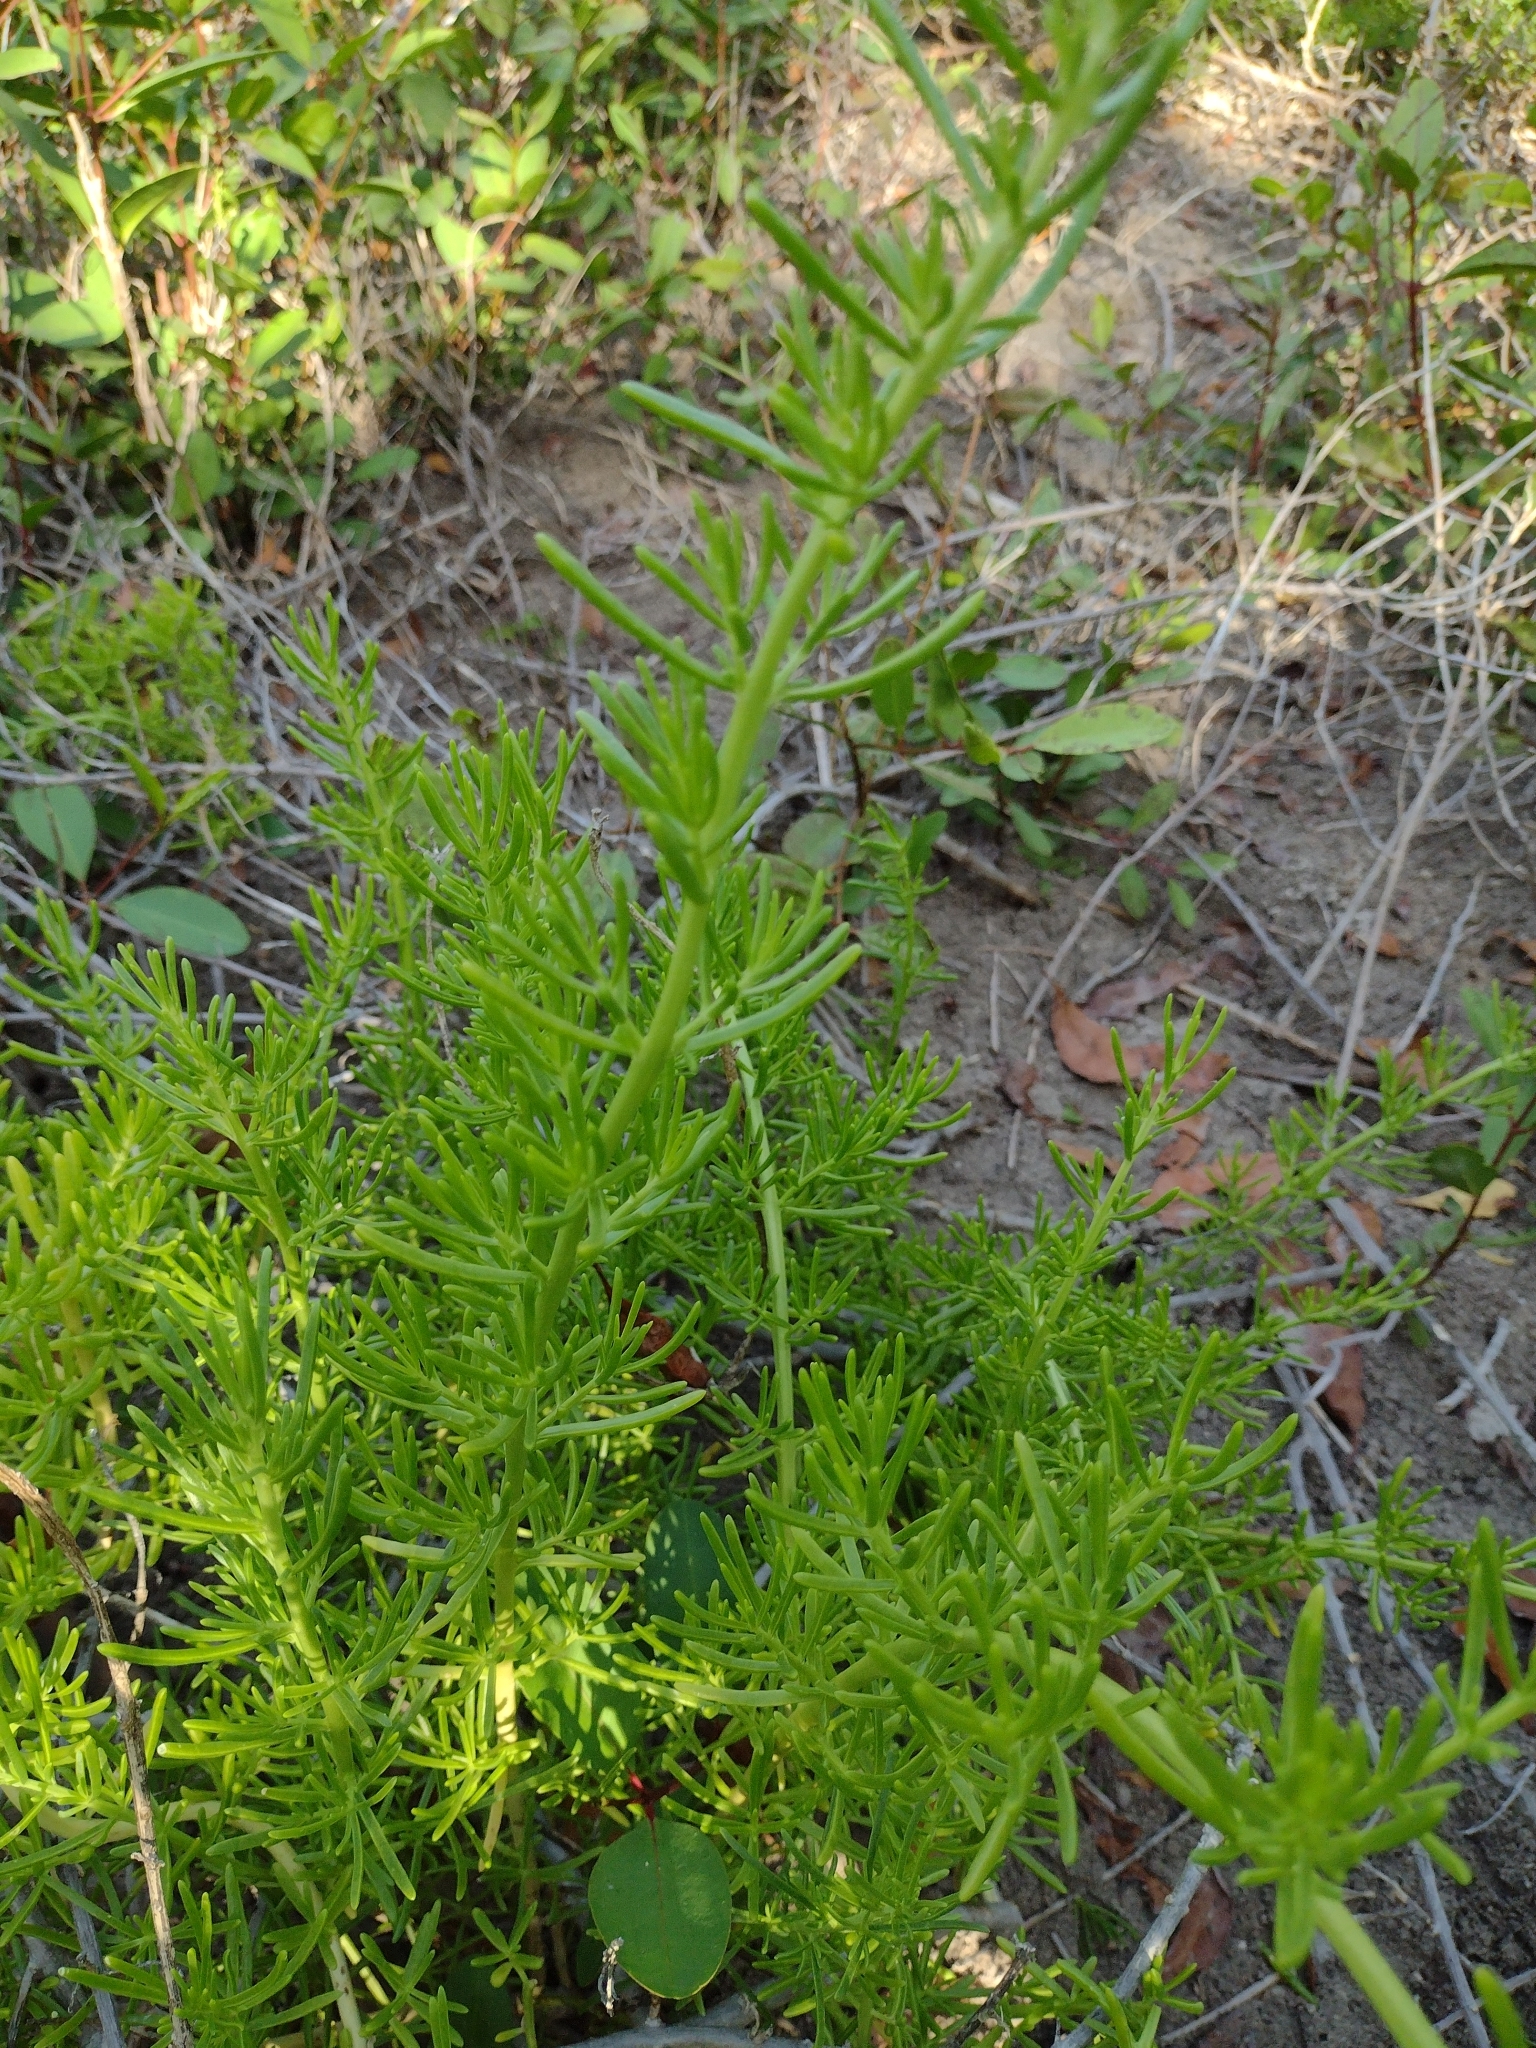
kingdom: Plantae
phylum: Tracheophyta
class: Magnoliopsida
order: Brassicales
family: Bataceae
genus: Batis
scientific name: Batis maritima
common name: Turtleweed
